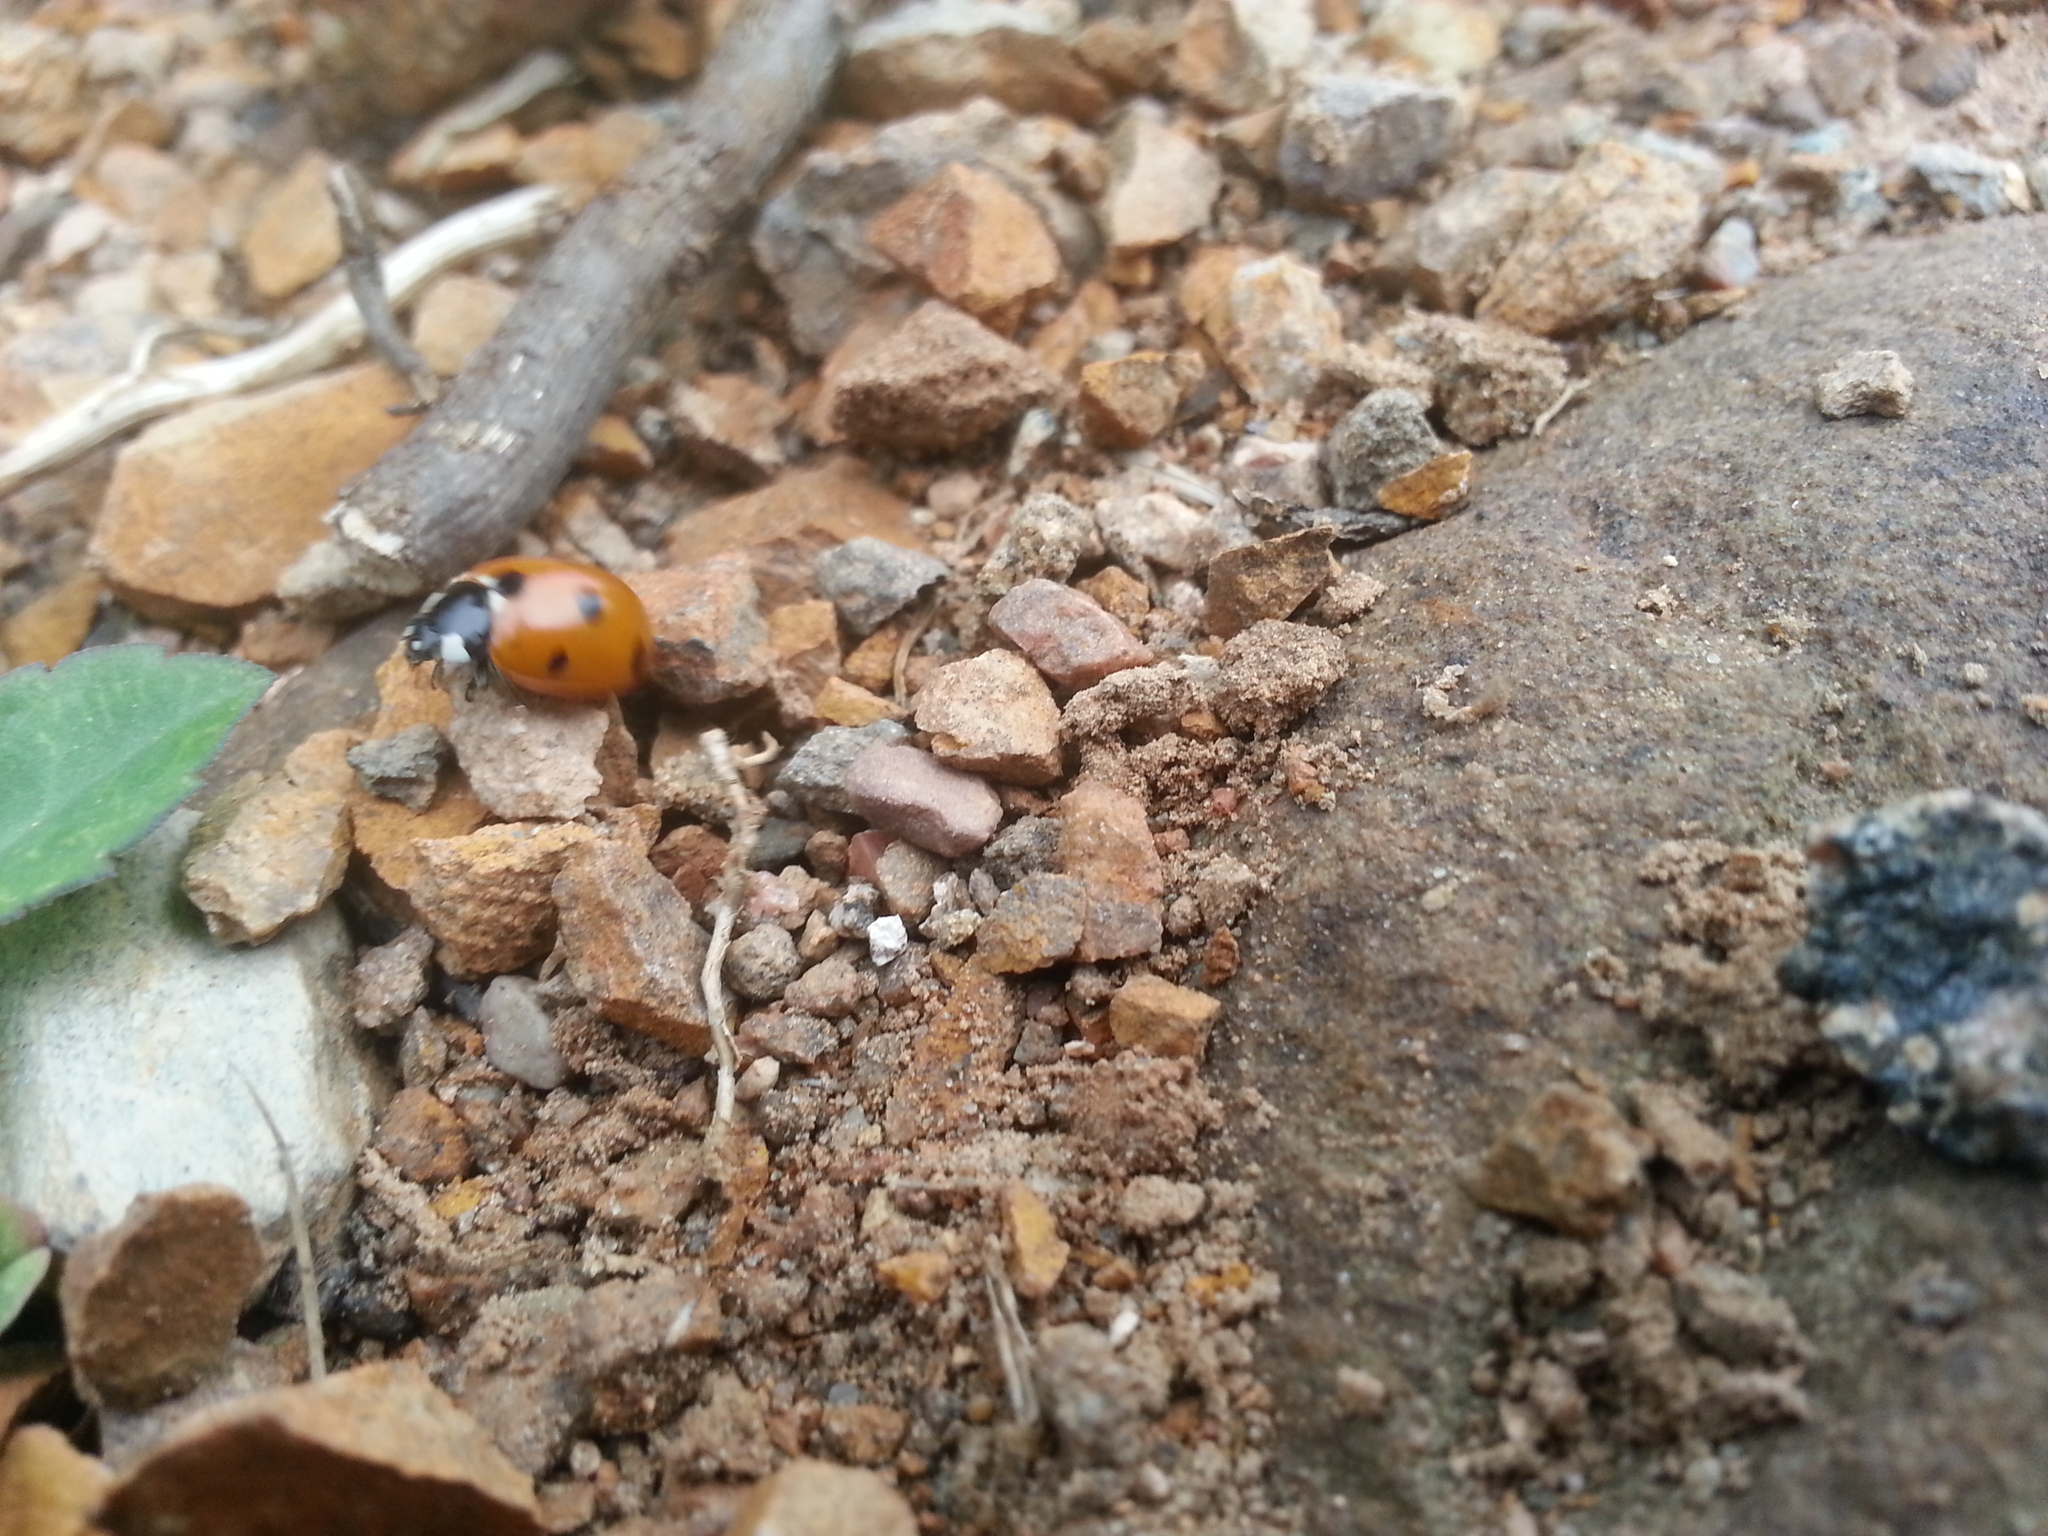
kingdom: Animalia
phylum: Arthropoda
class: Insecta
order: Coleoptera
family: Coccinellidae
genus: Coccinella
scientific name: Coccinella septempunctata
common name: Sevenspotted lady beetle
